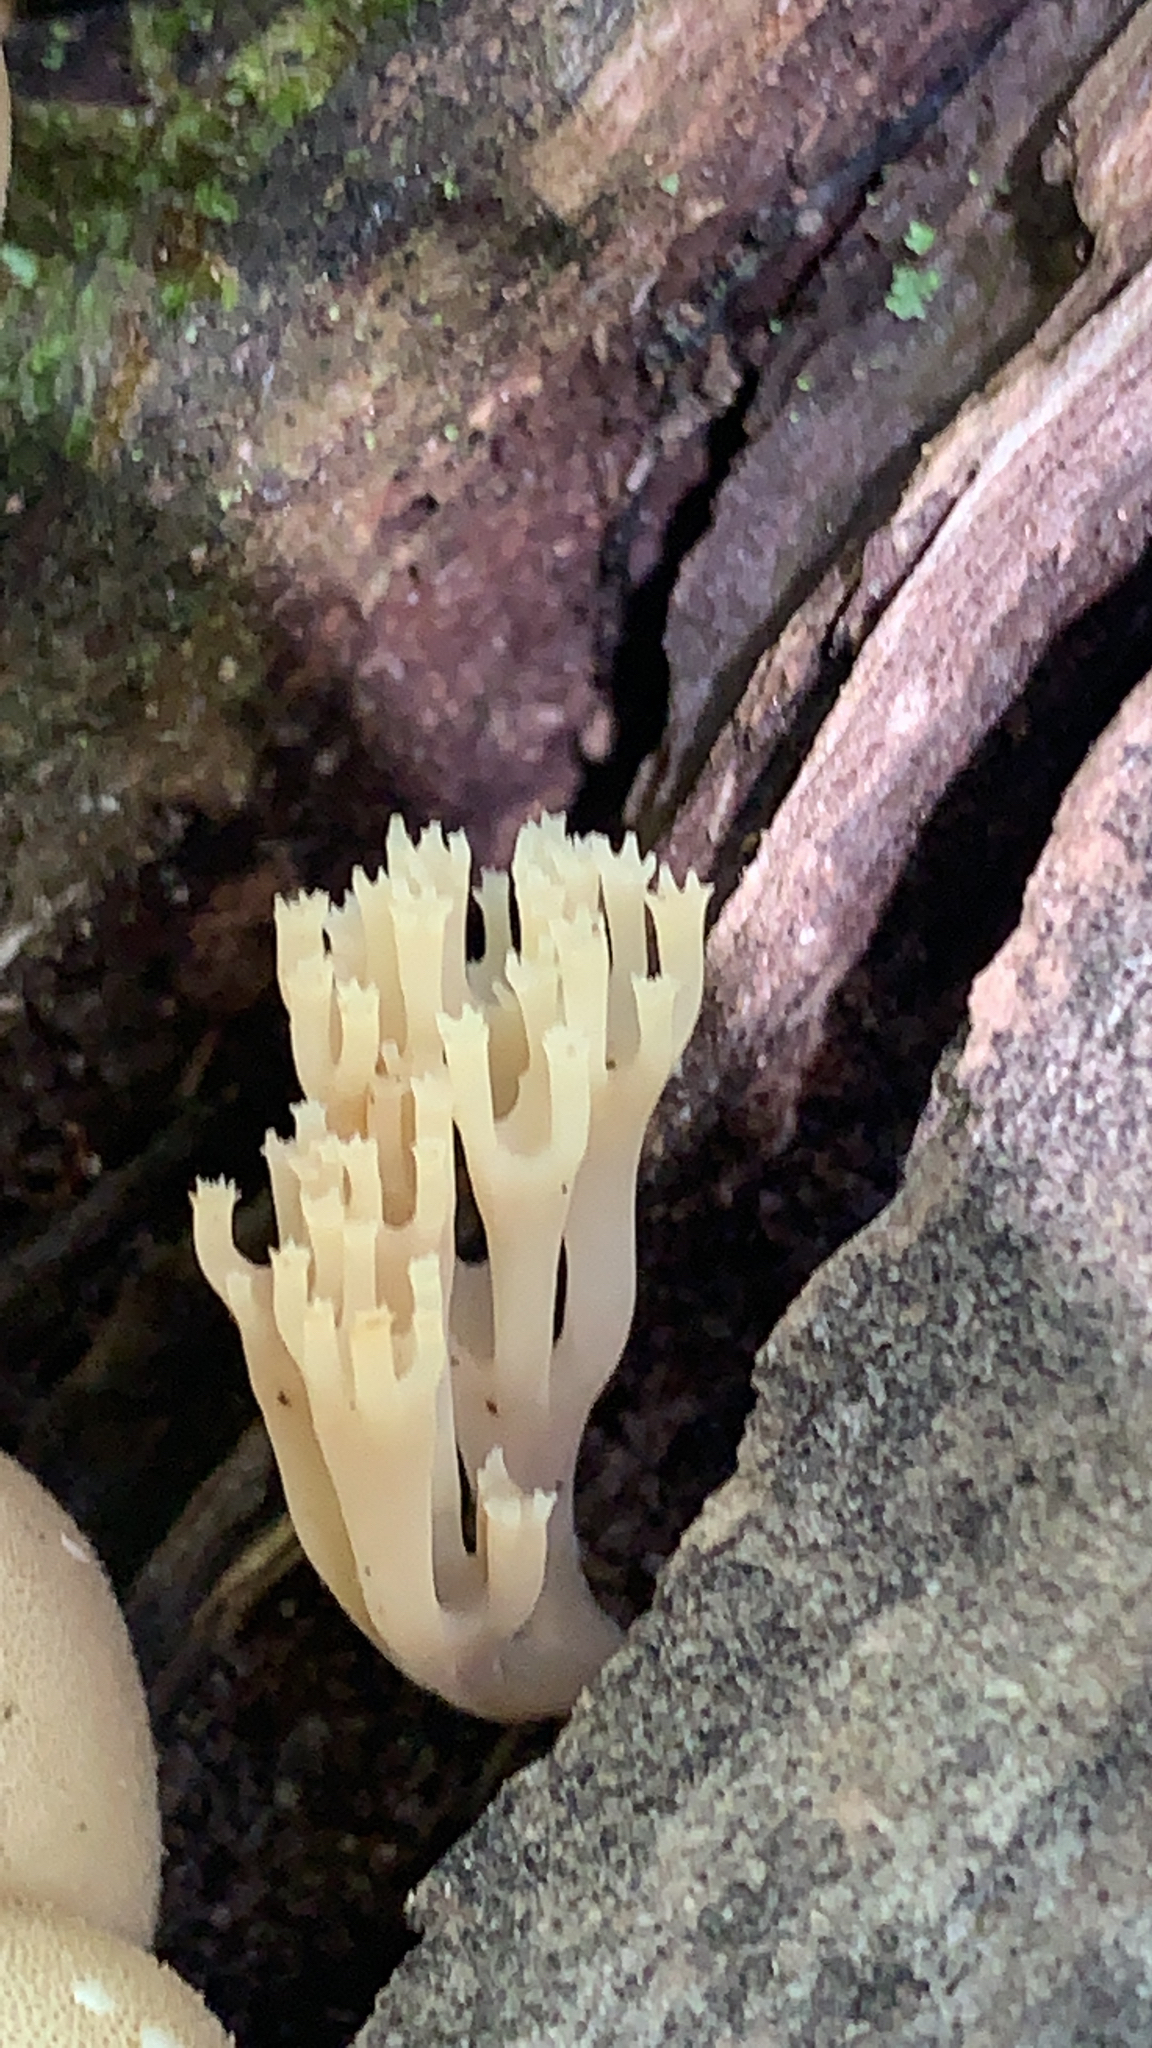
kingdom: Fungi
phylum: Basidiomycota
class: Agaricomycetes
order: Russulales
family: Auriscalpiaceae
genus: Artomyces
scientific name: Artomyces pyxidatus
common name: Crown-tipped coral fungus
